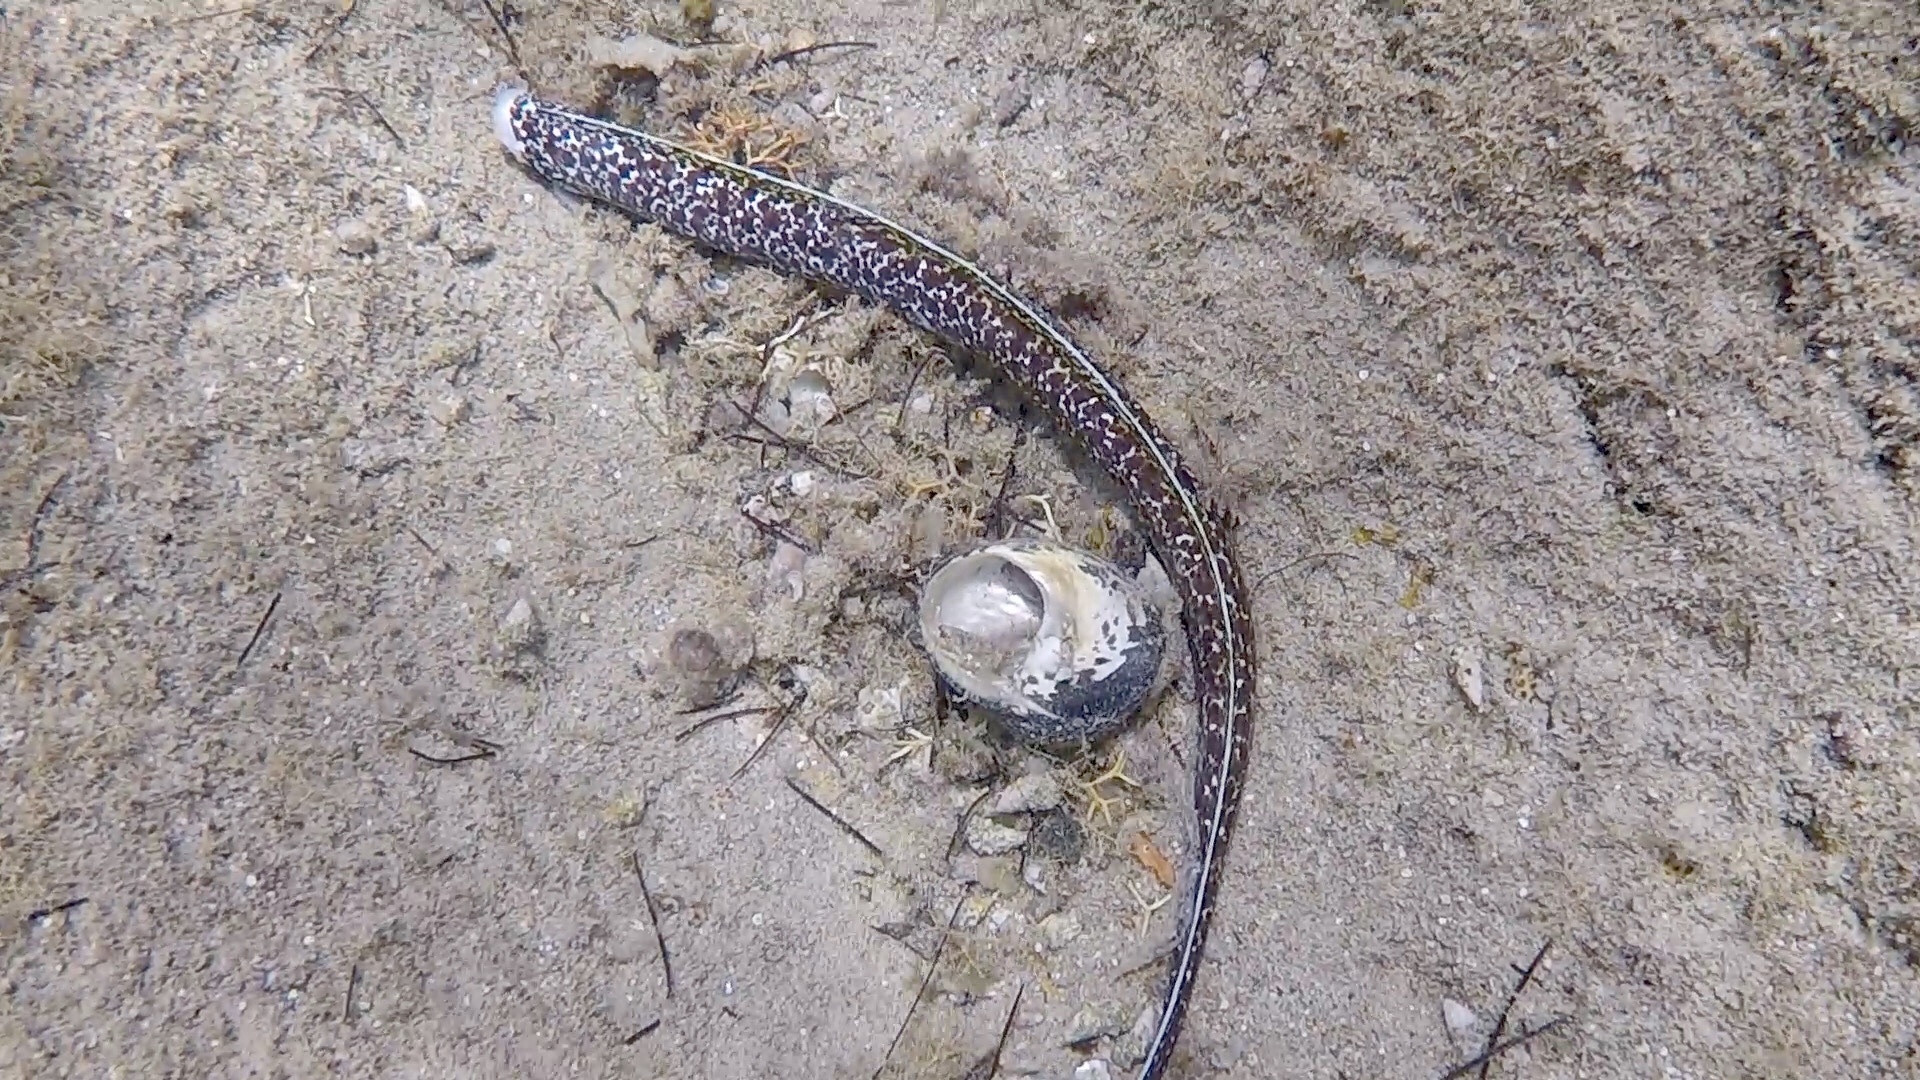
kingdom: Animalia
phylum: Chordata
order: Anguilliformes
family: Muraenidae
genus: Gymnothorax
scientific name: Gymnothorax moringa
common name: Spotted moray
